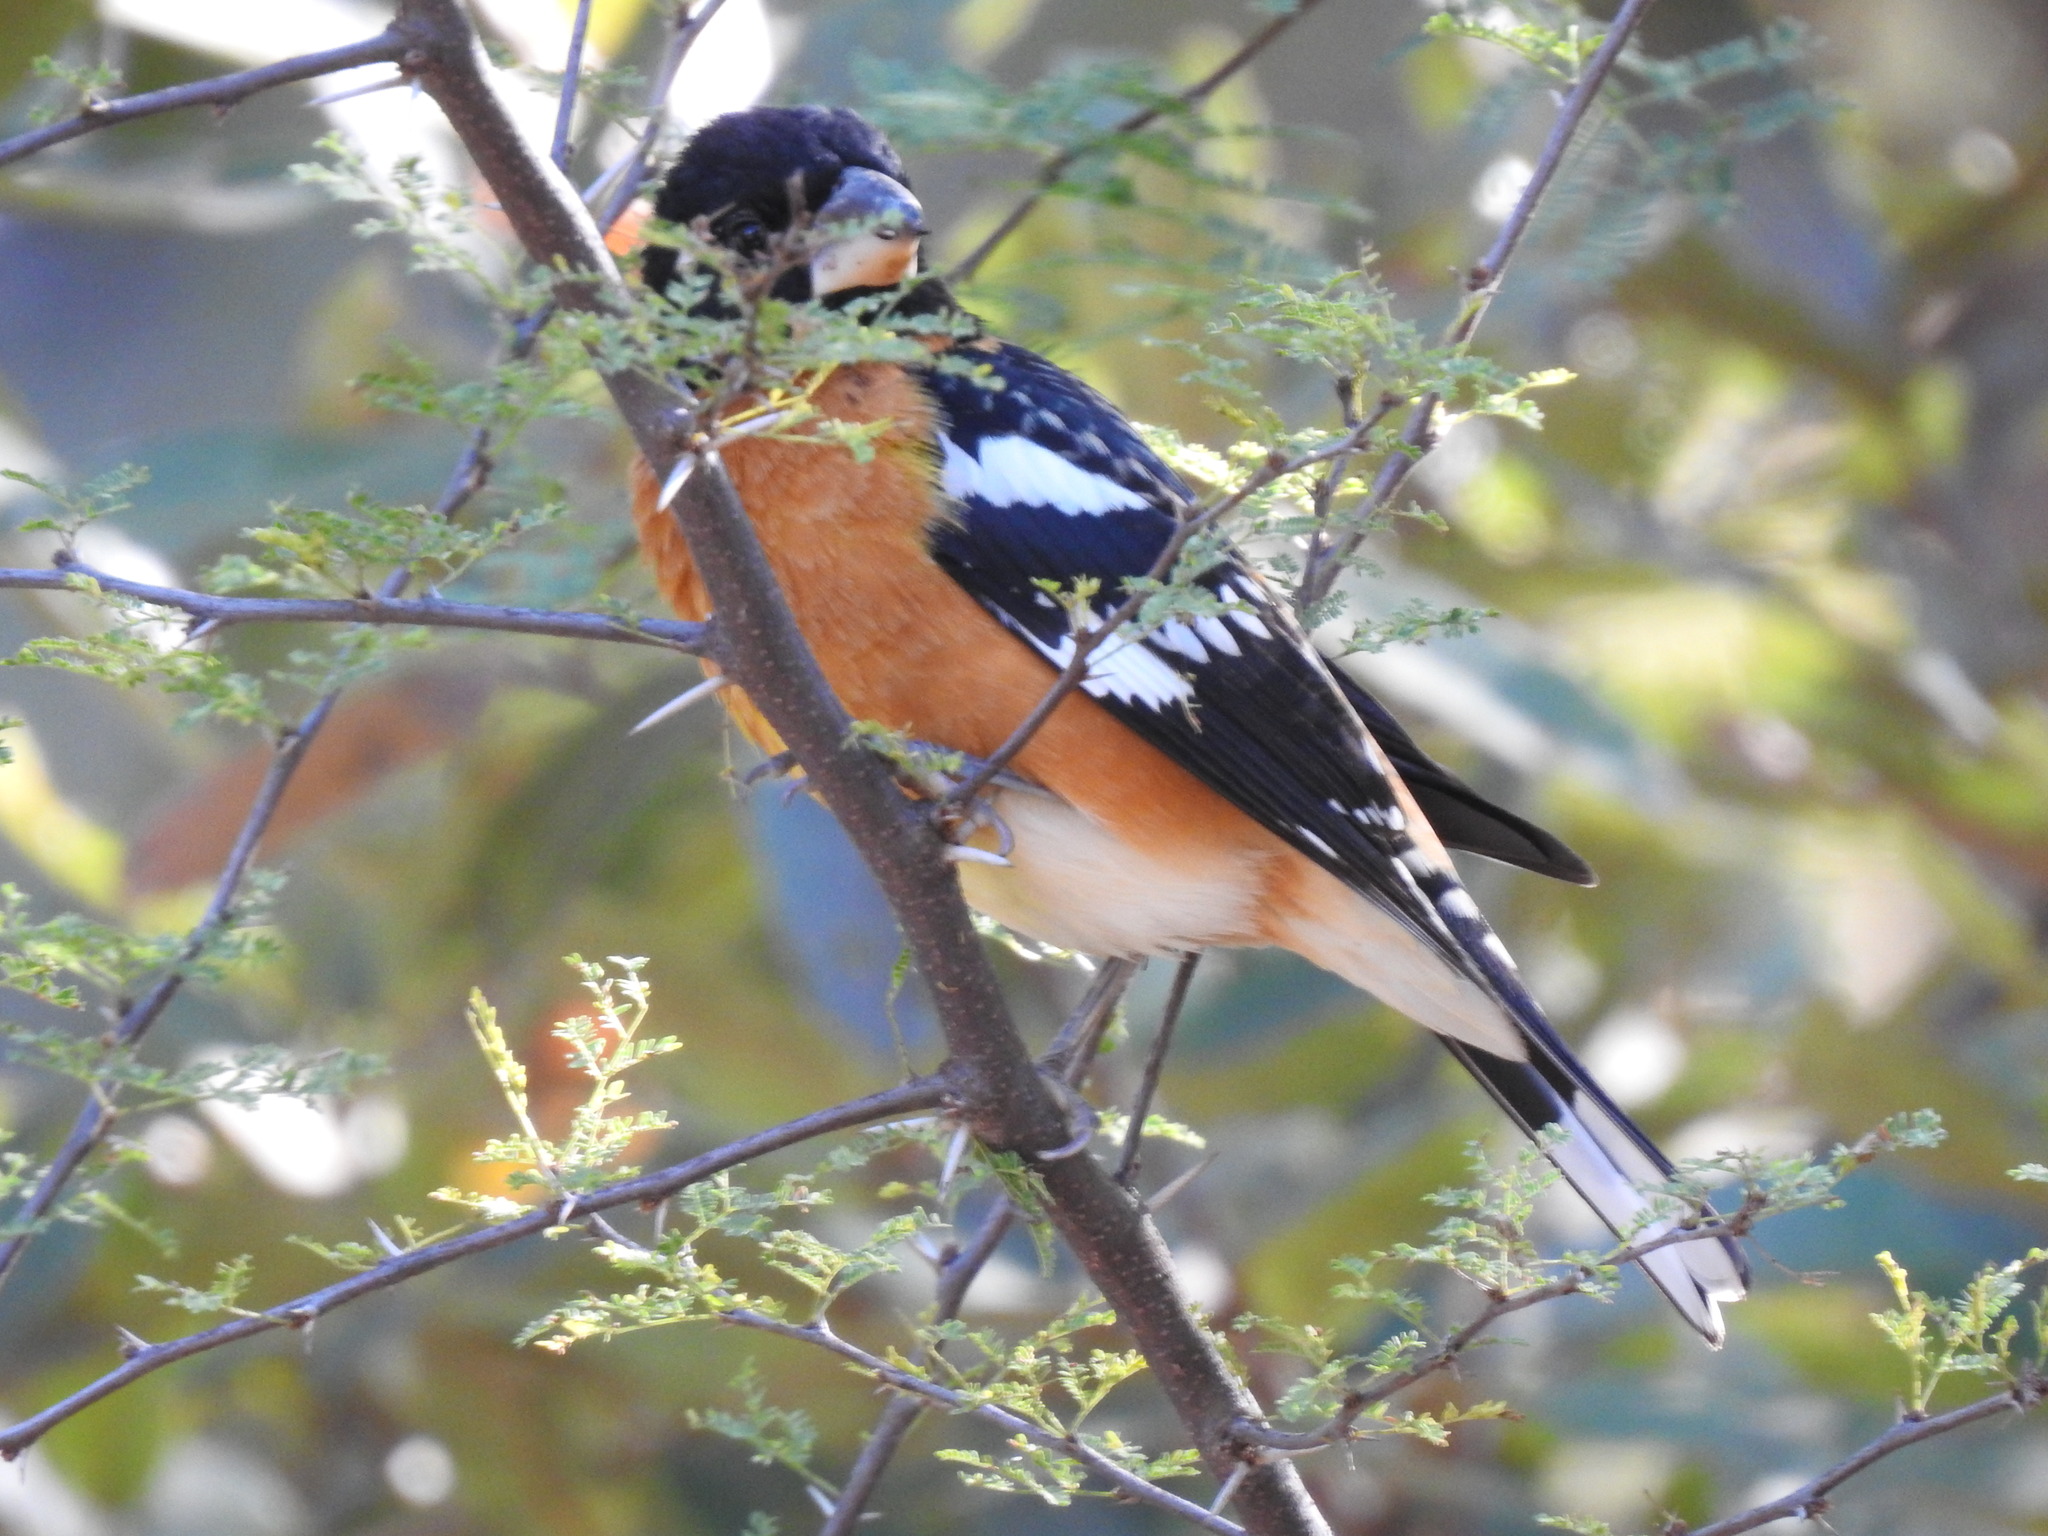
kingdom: Animalia
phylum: Chordata
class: Aves
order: Passeriformes
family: Cardinalidae
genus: Pheucticus
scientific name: Pheucticus melanocephalus
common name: Black-headed grosbeak
